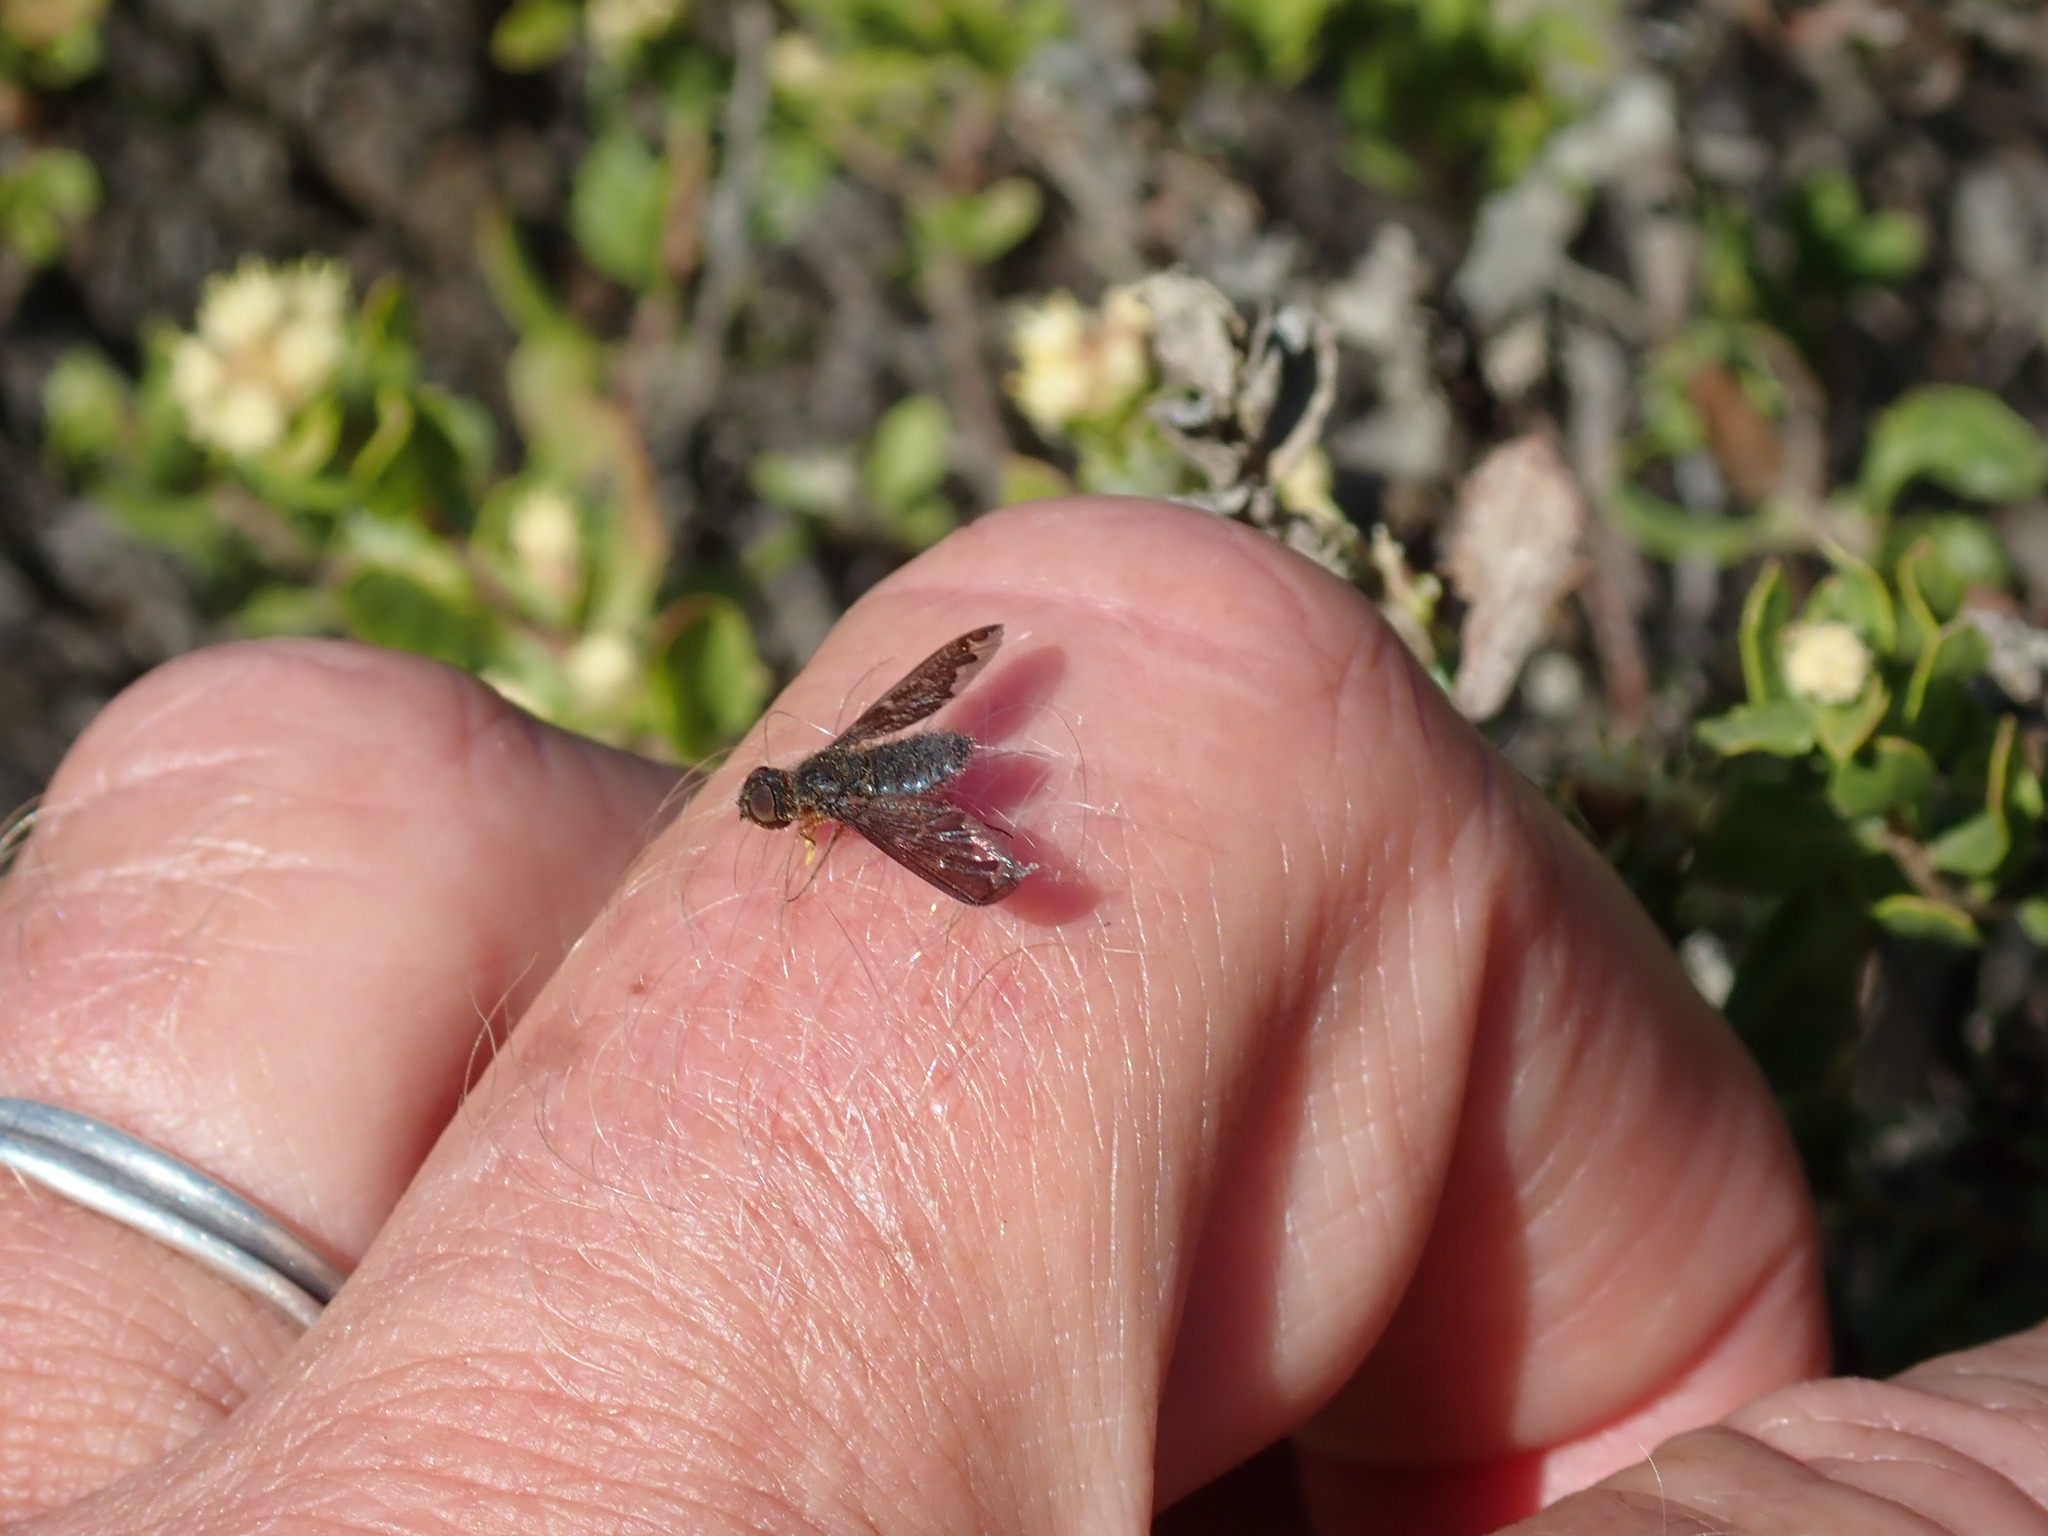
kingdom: Animalia
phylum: Arthropoda
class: Insecta
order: Diptera
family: Bombyliidae
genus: Hemipenthes
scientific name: Hemipenthes sinuosus
